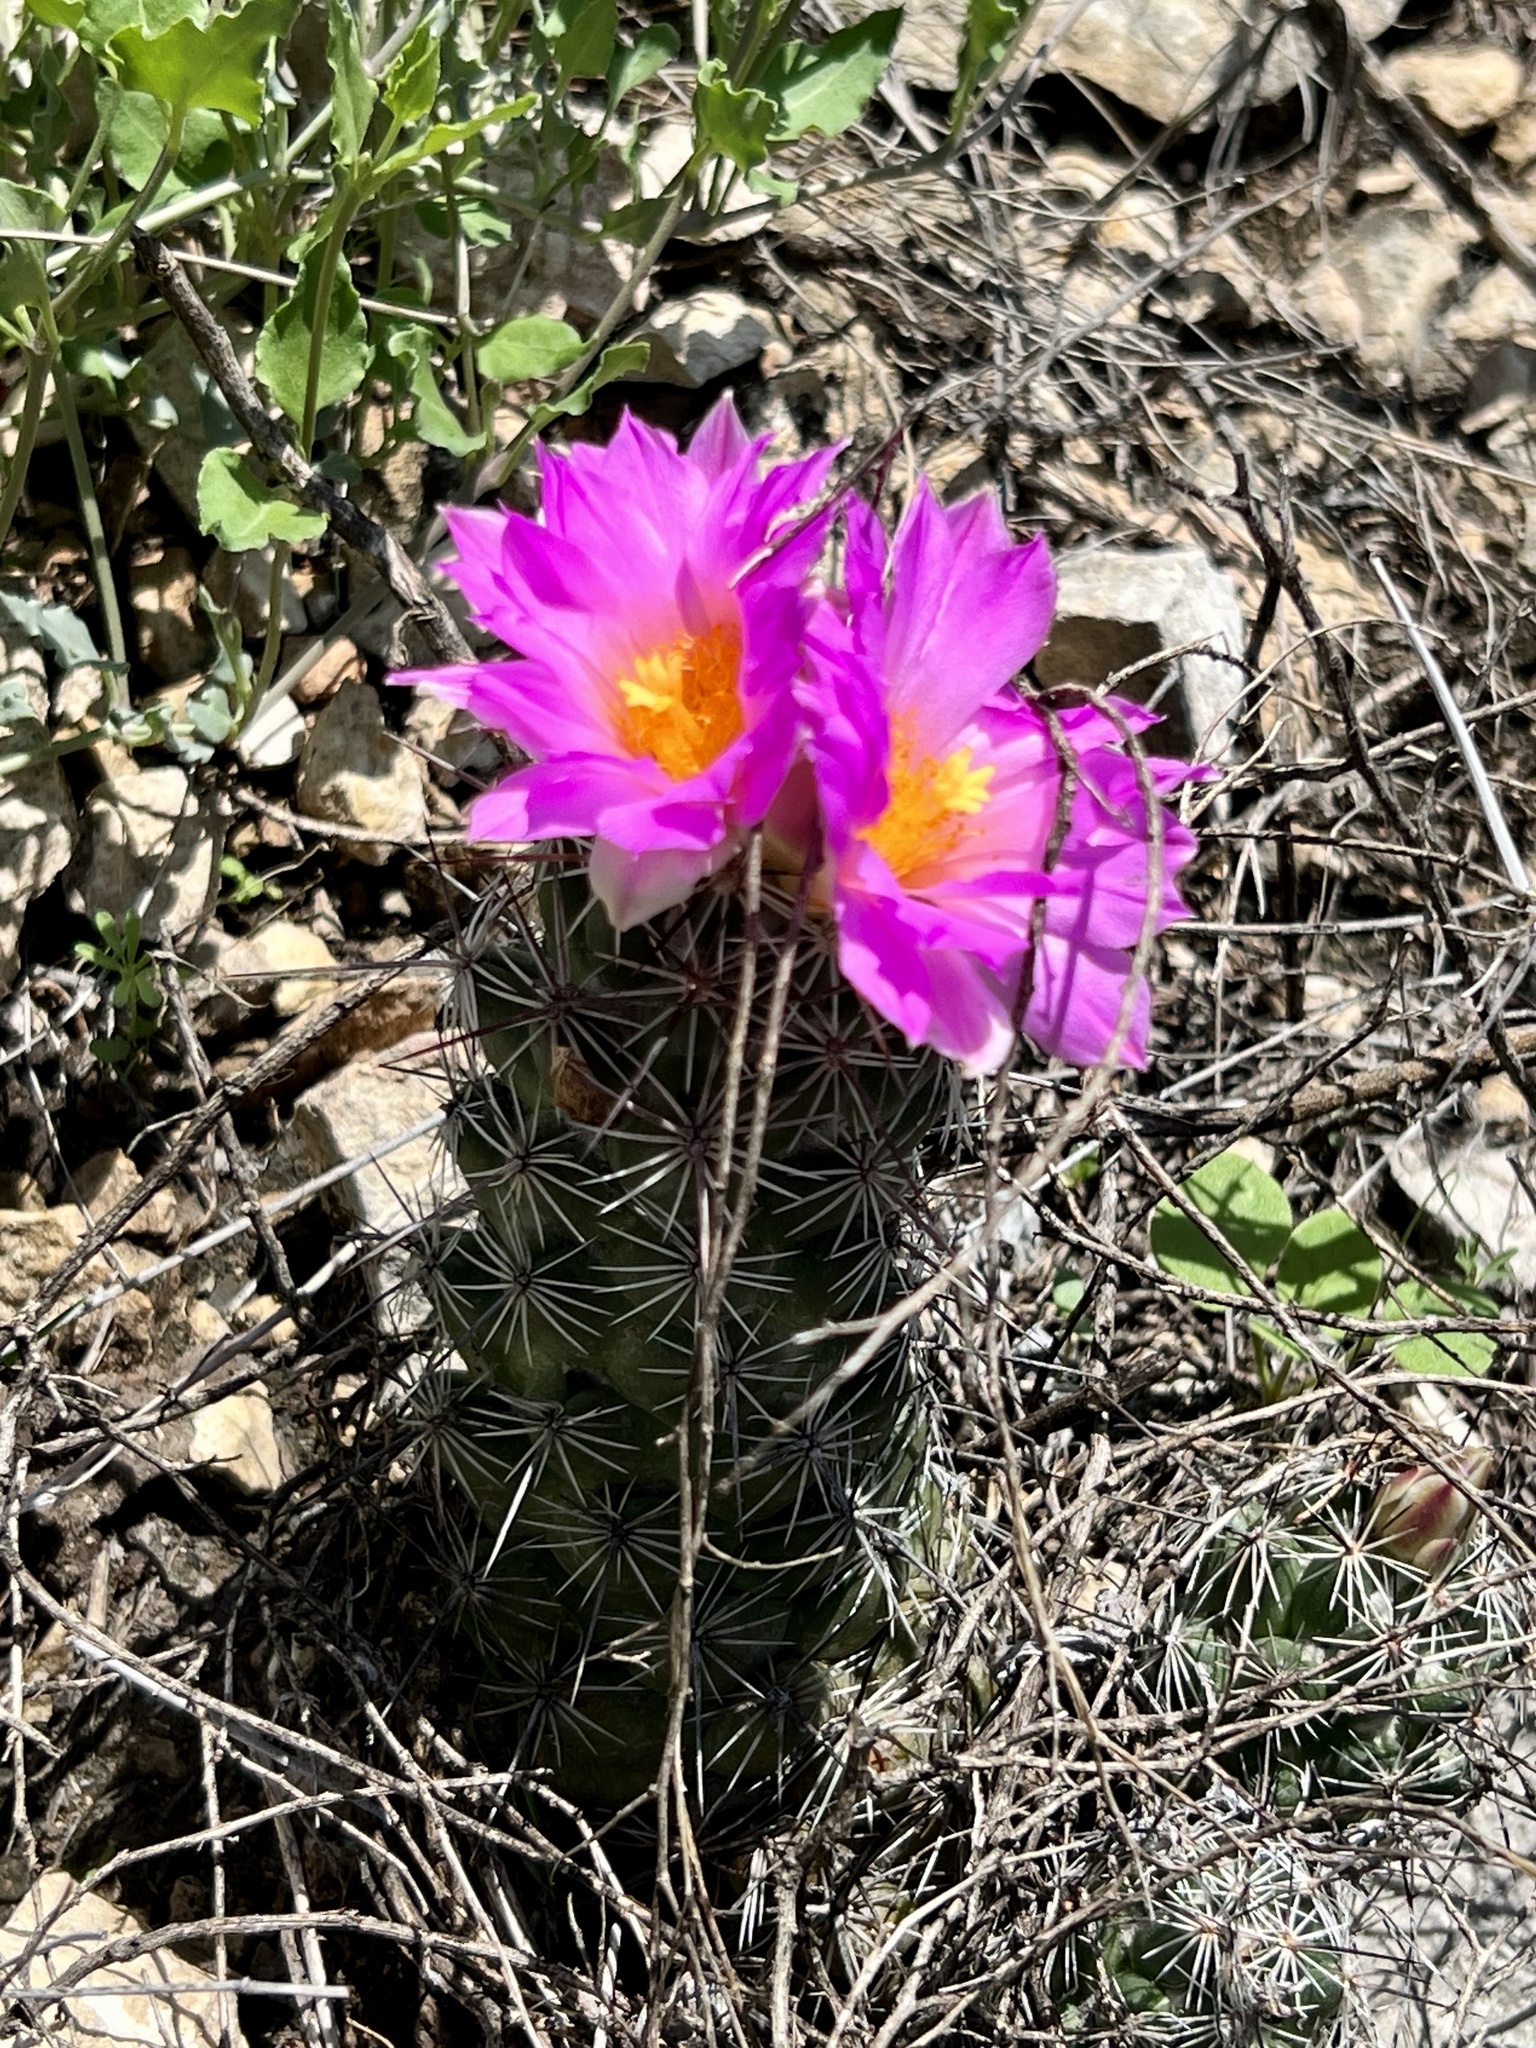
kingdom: Plantae
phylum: Tracheophyta
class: Magnoliopsida
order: Caryophyllales
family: Cactaceae
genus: Cochemiea
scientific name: Cochemiea conoidea
